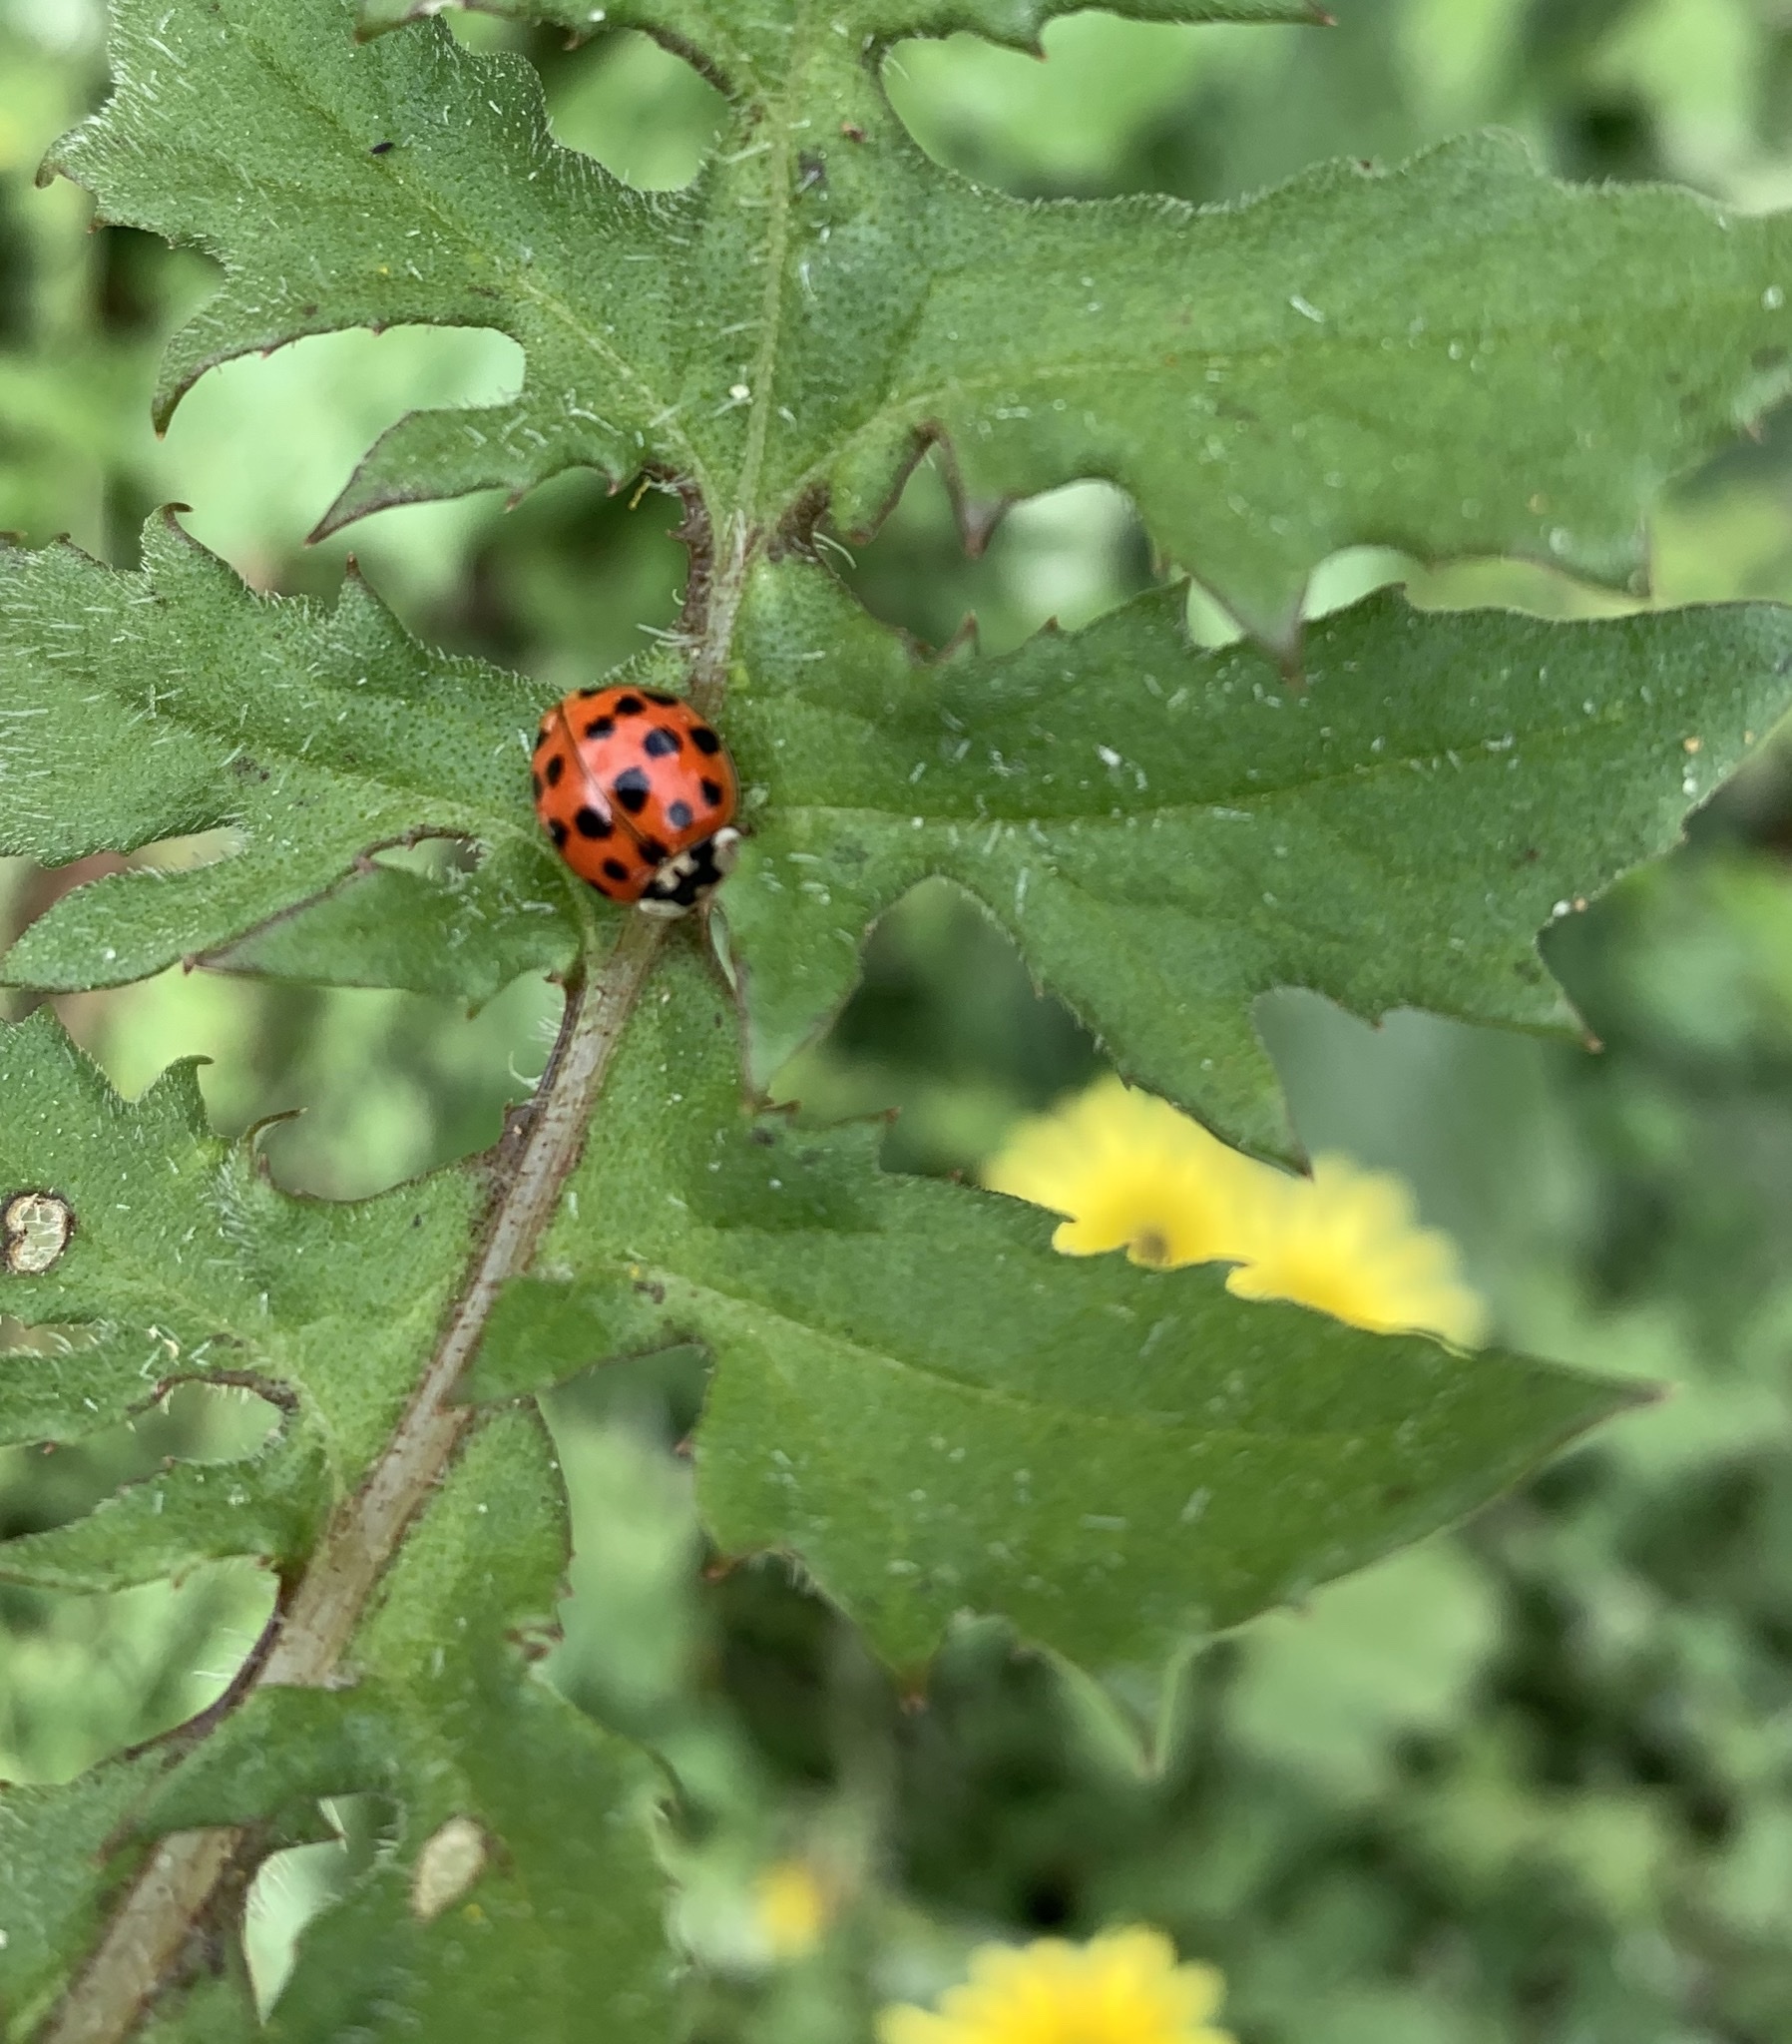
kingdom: Animalia
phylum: Arthropoda
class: Insecta
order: Coleoptera
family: Coccinellidae
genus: Harmonia
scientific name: Harmonia axyridis
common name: Harlequin ladybird
